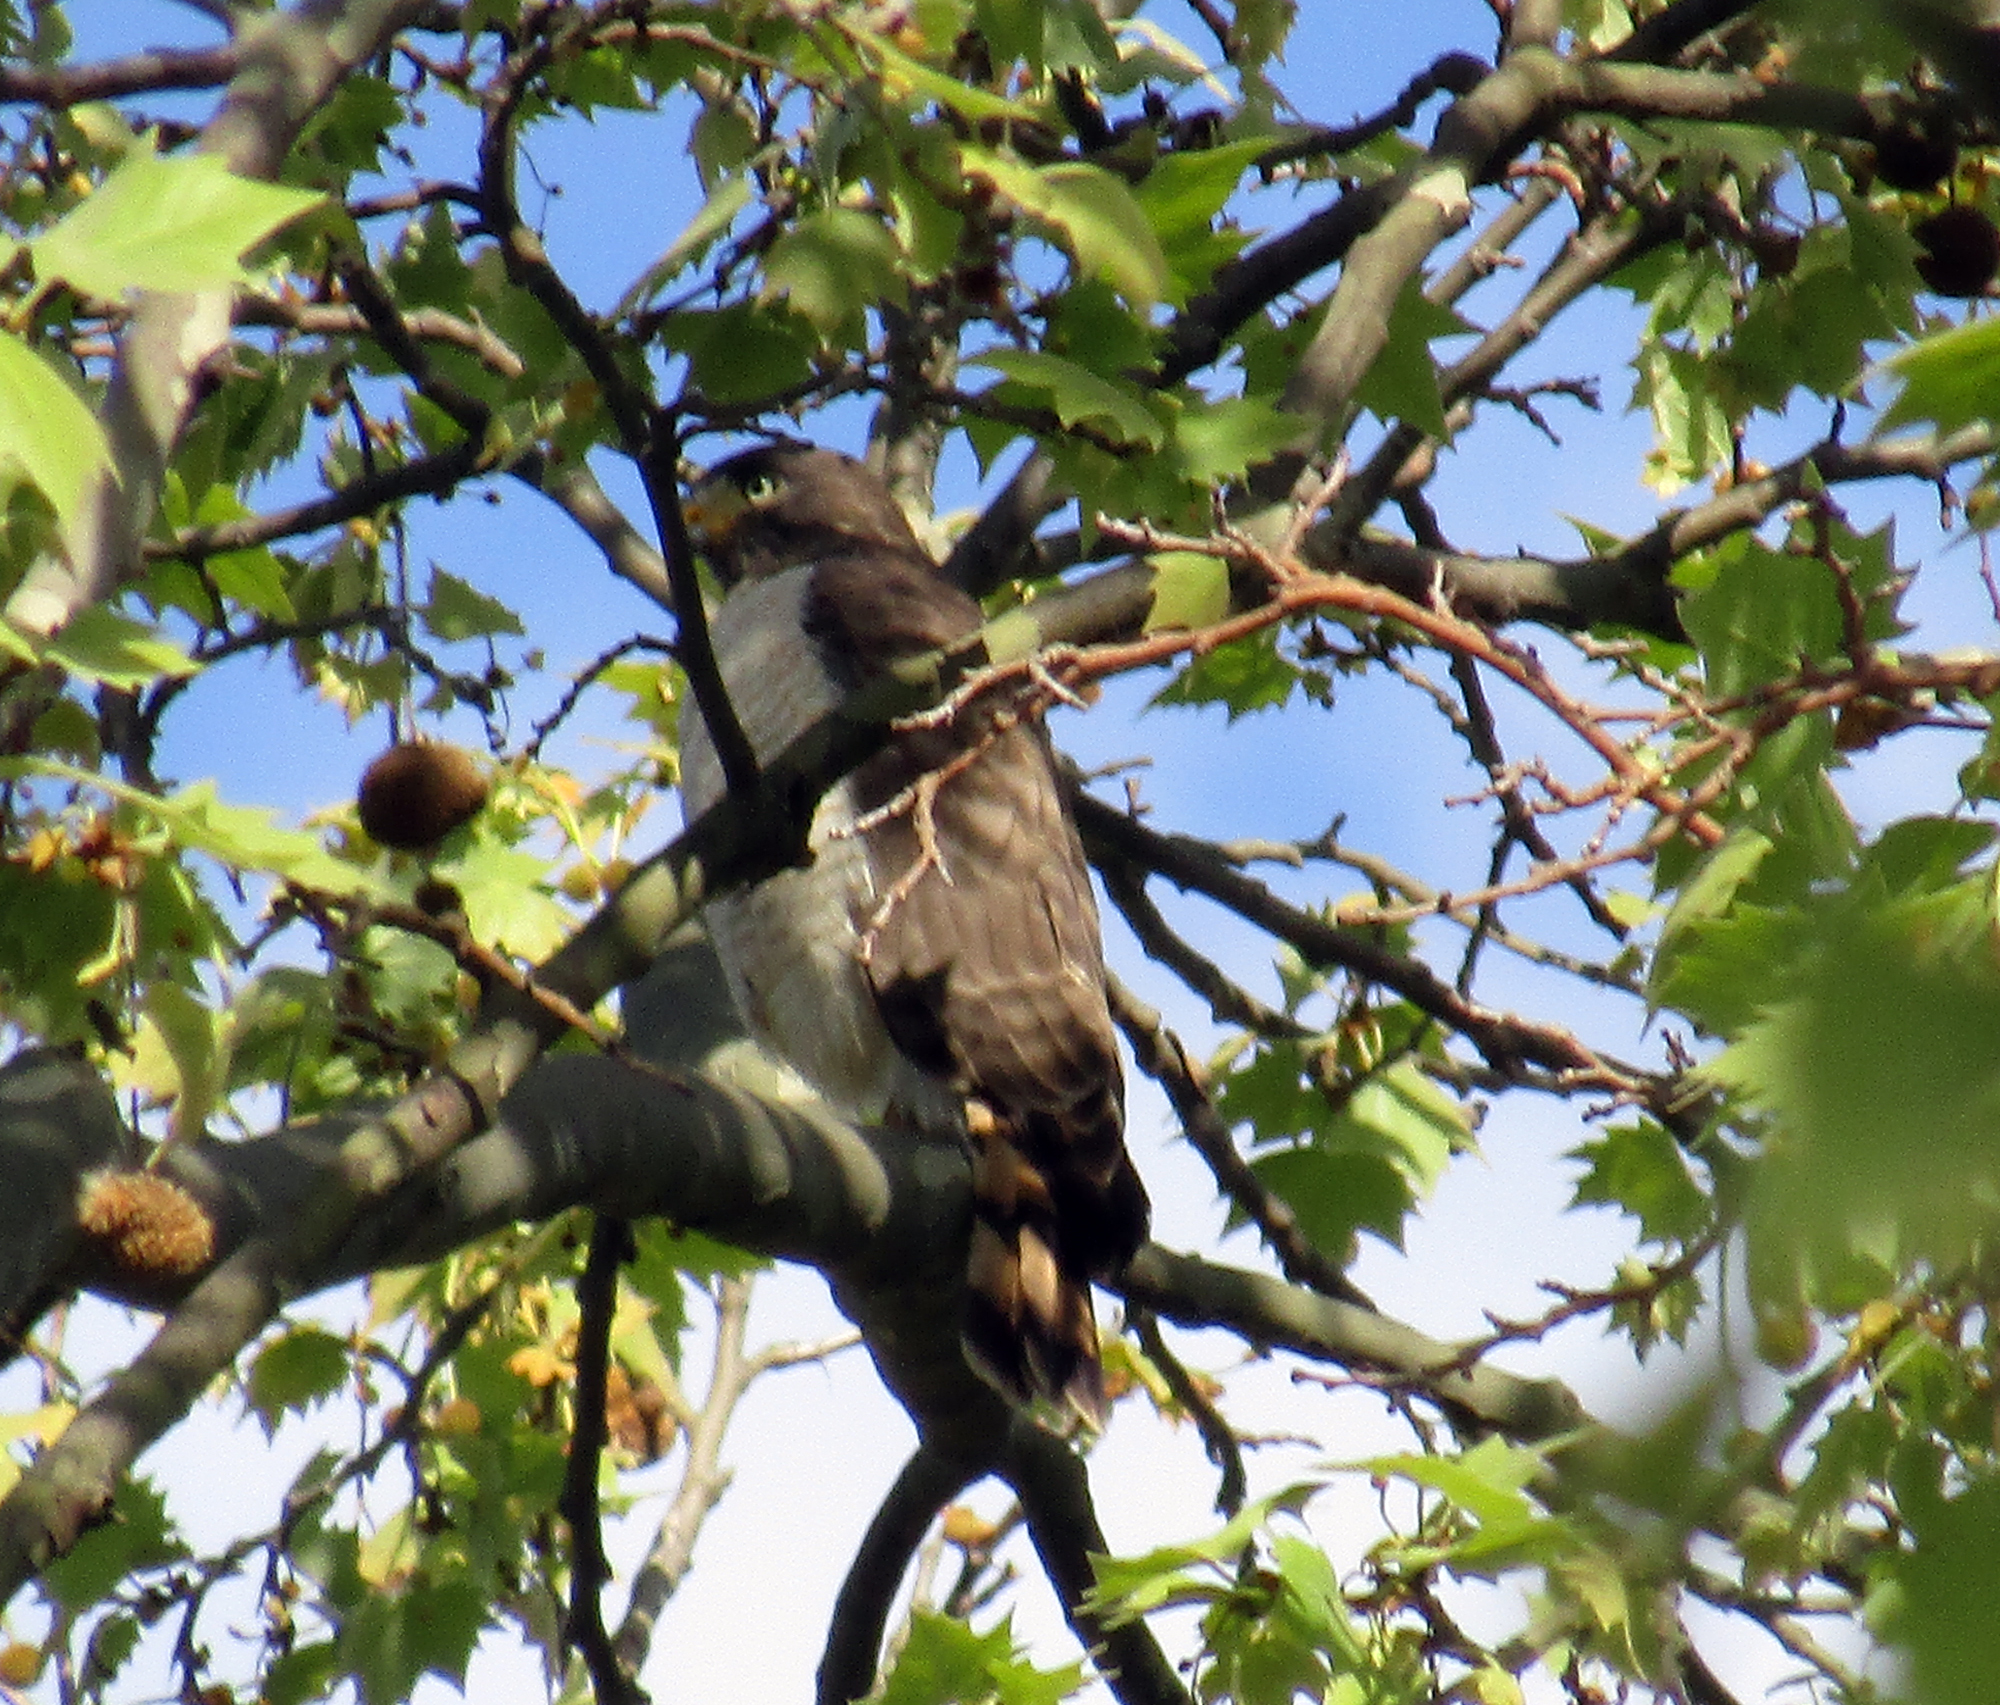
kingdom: Animalia
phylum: Chordata
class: Aves
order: Accipitriformes
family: Accipitridae
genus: Rupornis
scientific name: Rupornis magnirostris
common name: Roadside hawk
